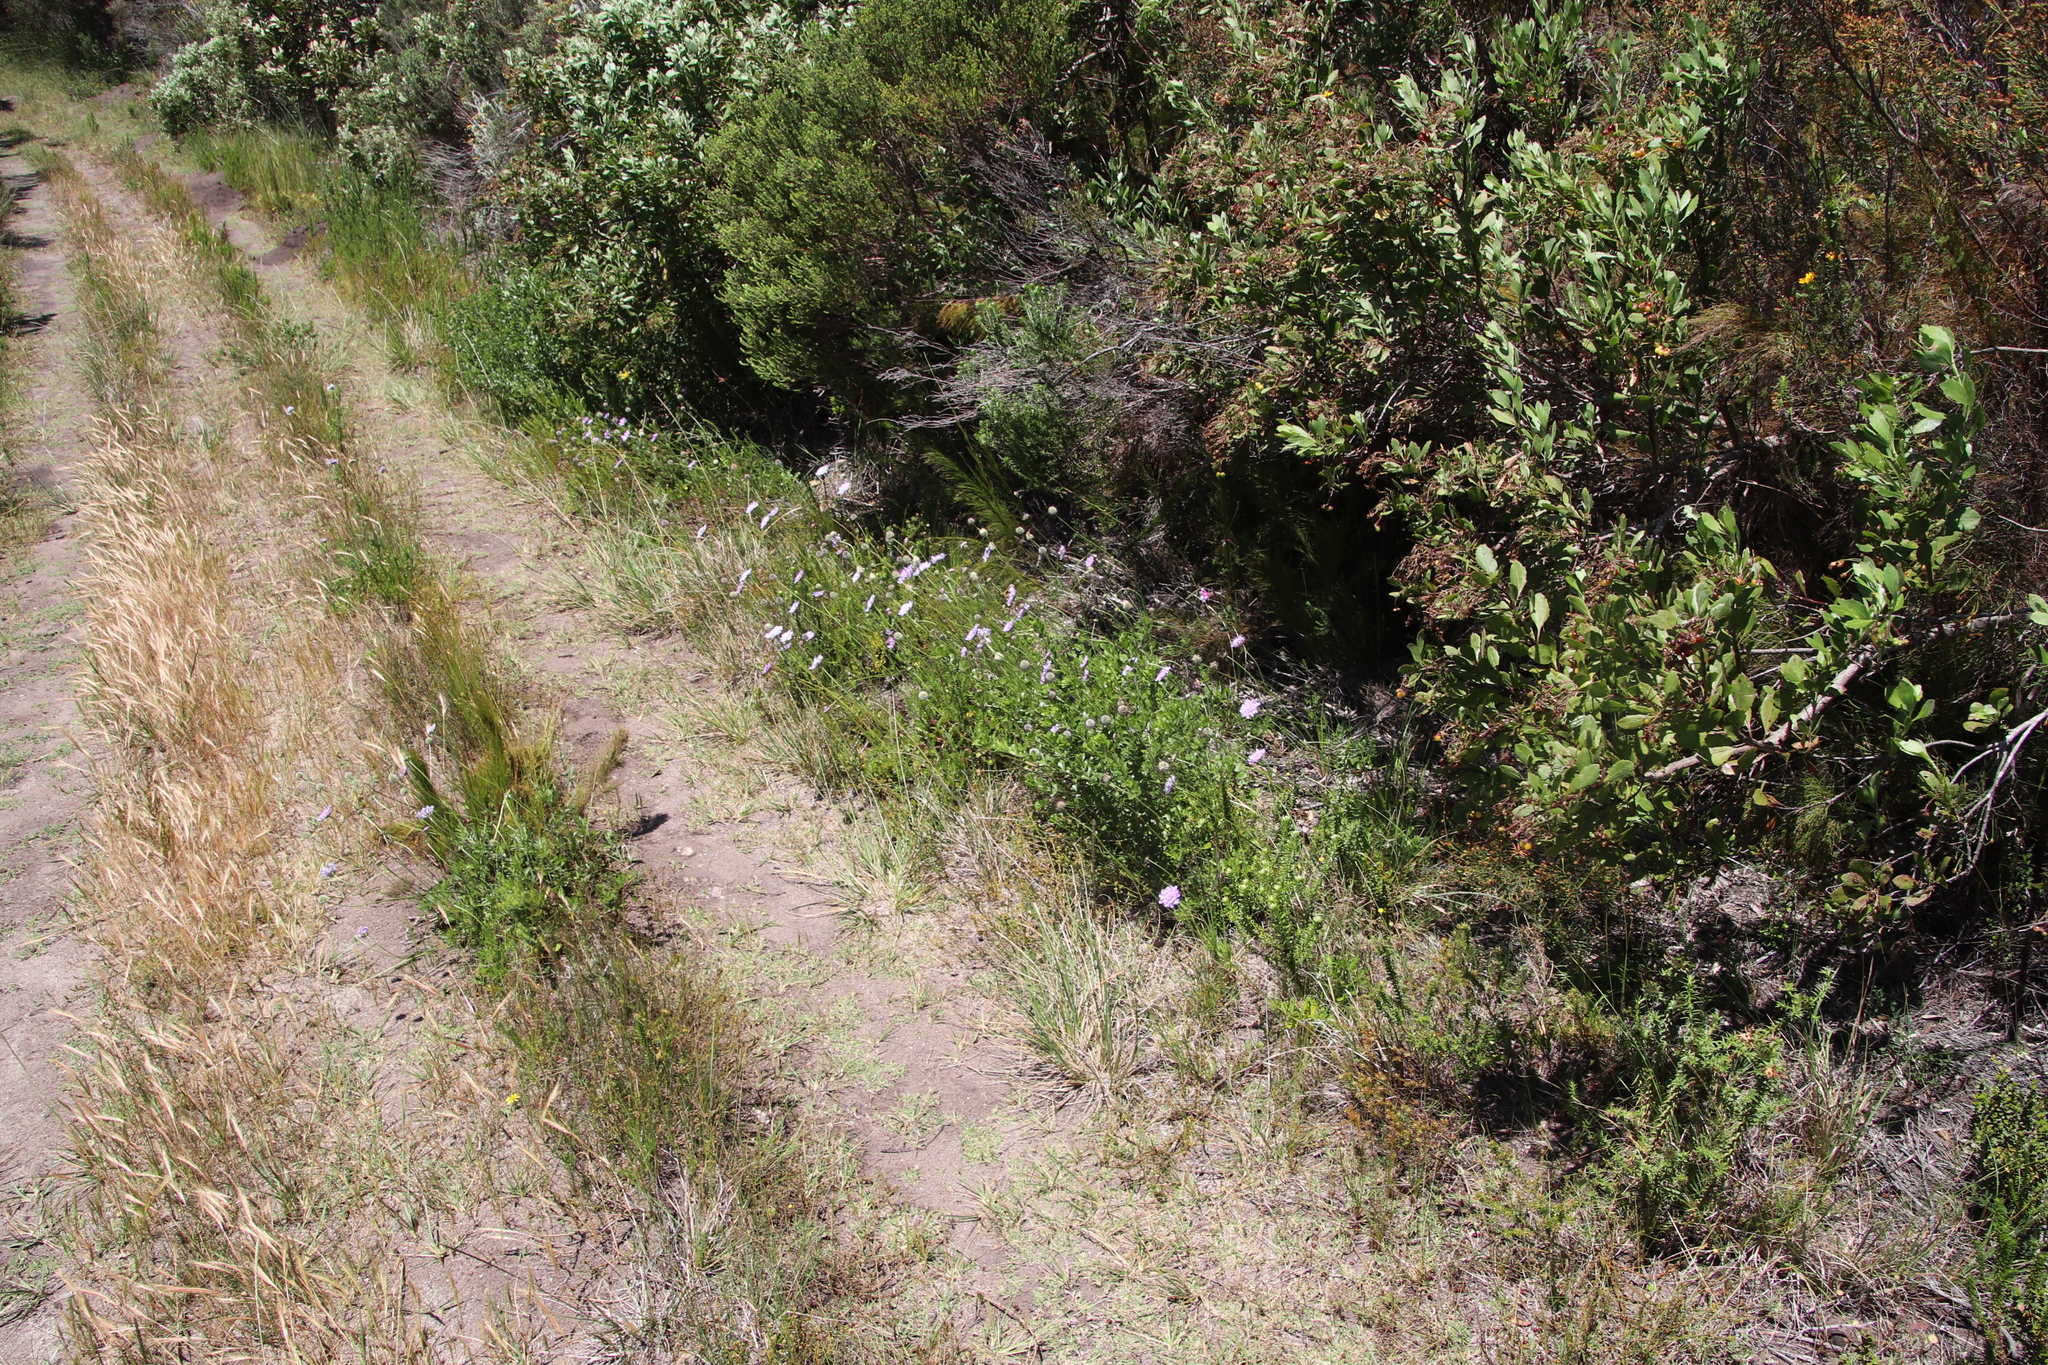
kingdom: Plantae
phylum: Tracheophyta
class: Magnoliopsida
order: Dipsacales
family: Caprifoliaceae
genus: Scabiosa
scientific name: Scabiosa columbaria
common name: Small scabious
